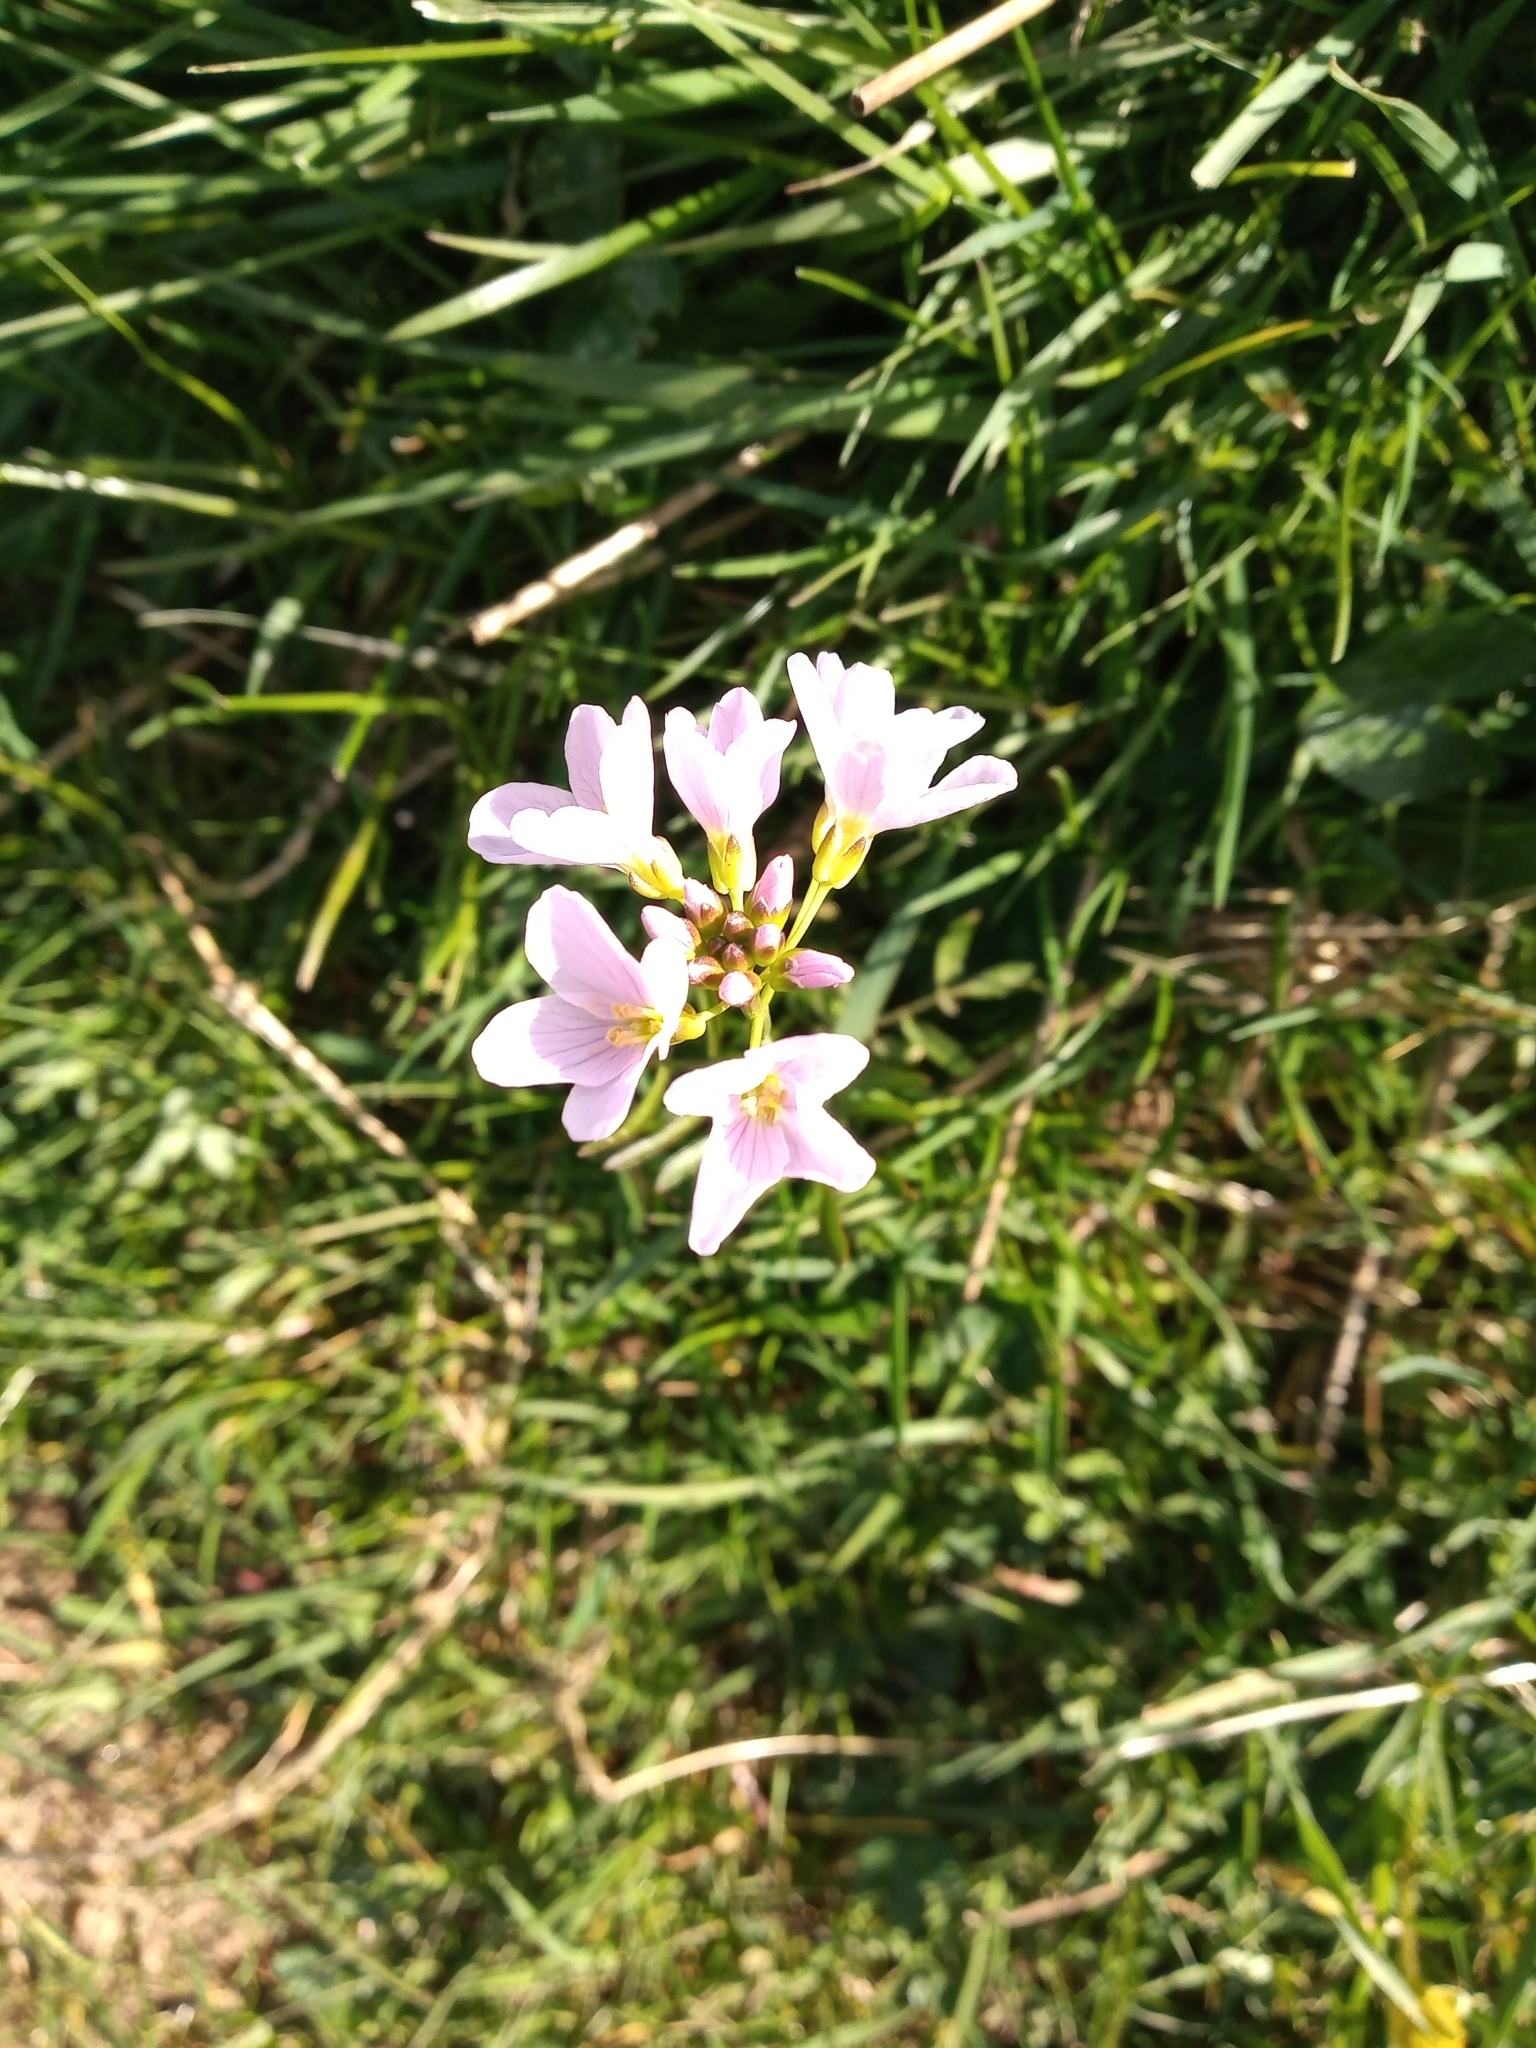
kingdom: Plantae
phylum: Tracheophyta
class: Magnoliopsida
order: Brassicales
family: Brassicaceae
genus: Cardamine
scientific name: Cardamine pratensis
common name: Cuckoo flower
